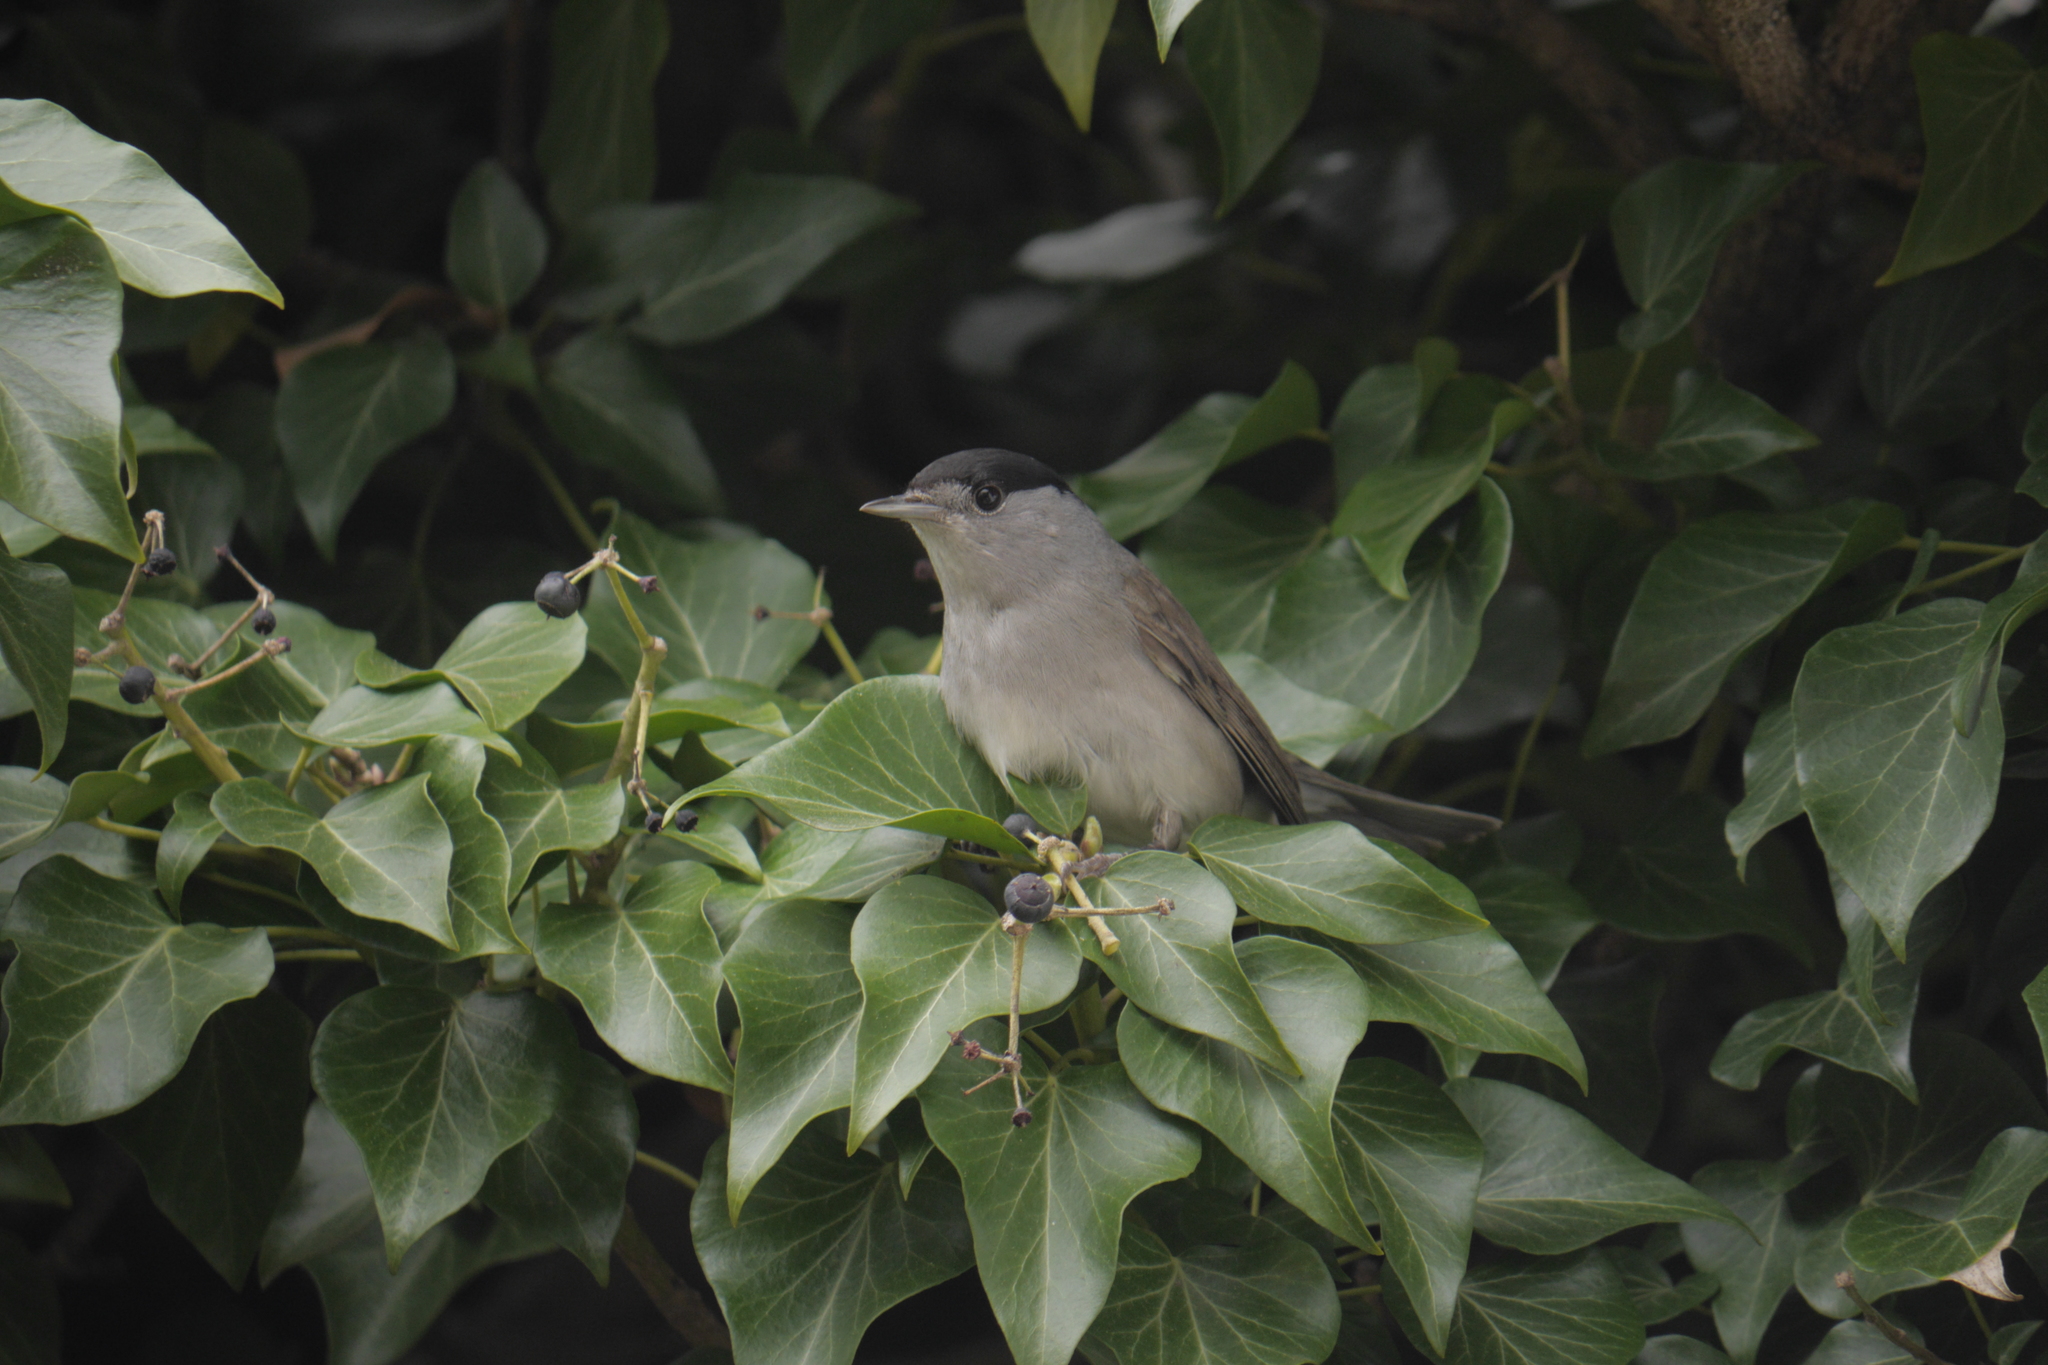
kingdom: Animalia
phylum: Chordata
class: Aves
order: Passeriformes
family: Sylviidae
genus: Sylvia
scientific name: Sylvia atricapilla
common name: Eurasian blackcap
